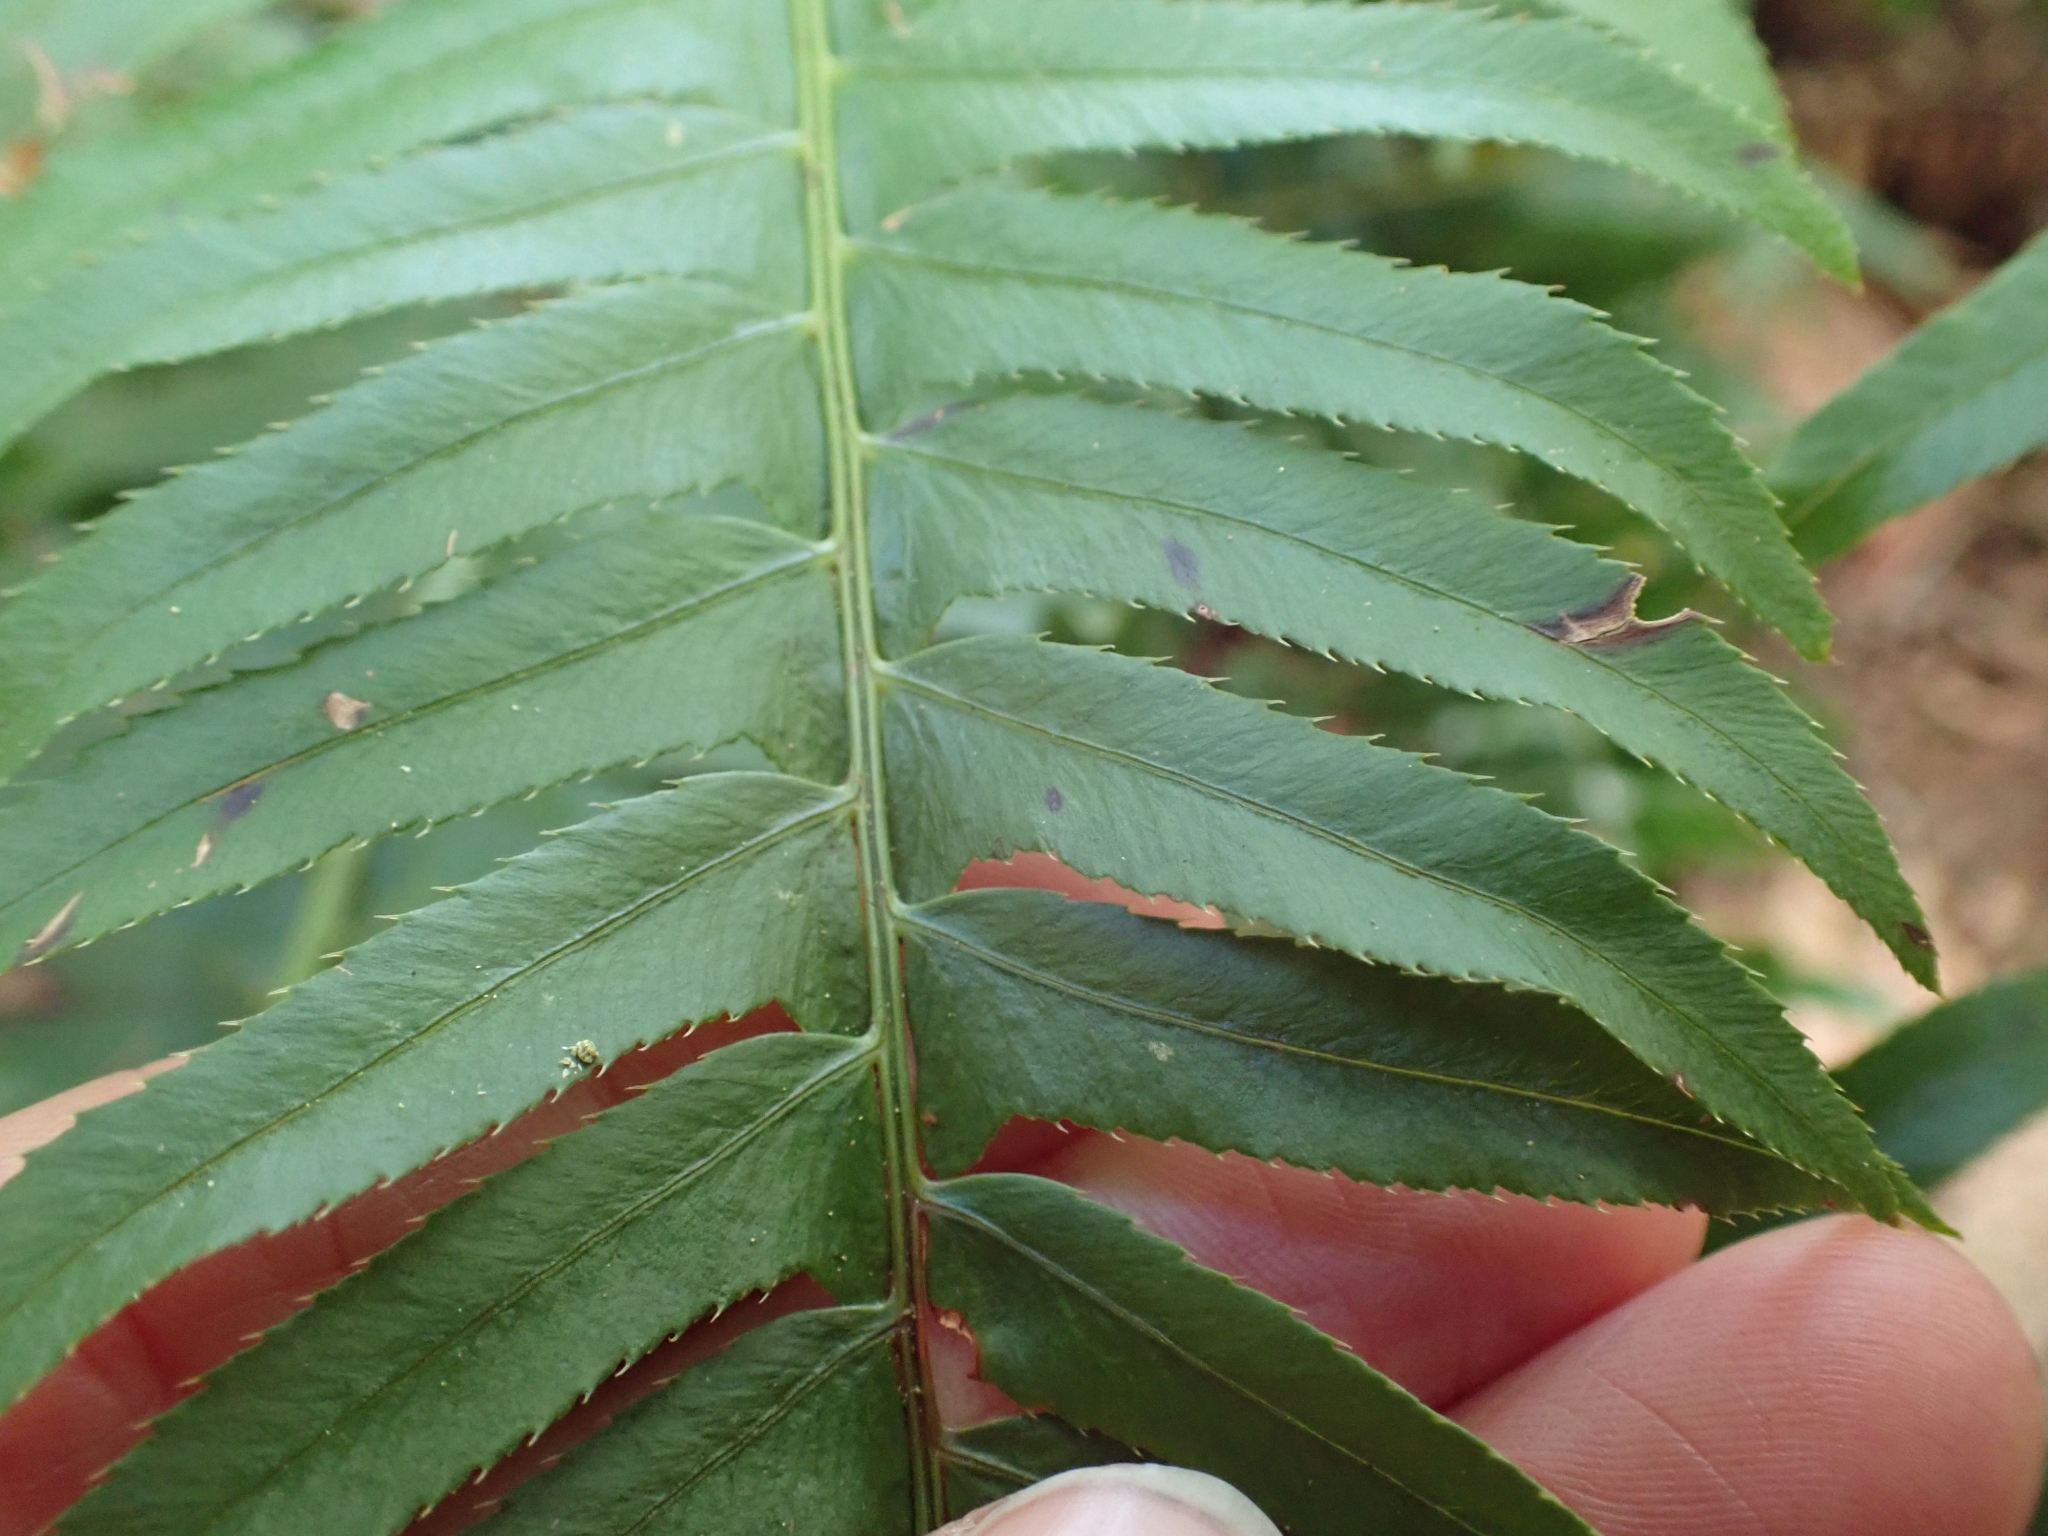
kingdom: Plantae
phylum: Tracheophyta
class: Polypodiopsida
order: Polypodiales
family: Dryopteridaceae
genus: Polystichum
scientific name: Polystichum munitum
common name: Western sword-fern
